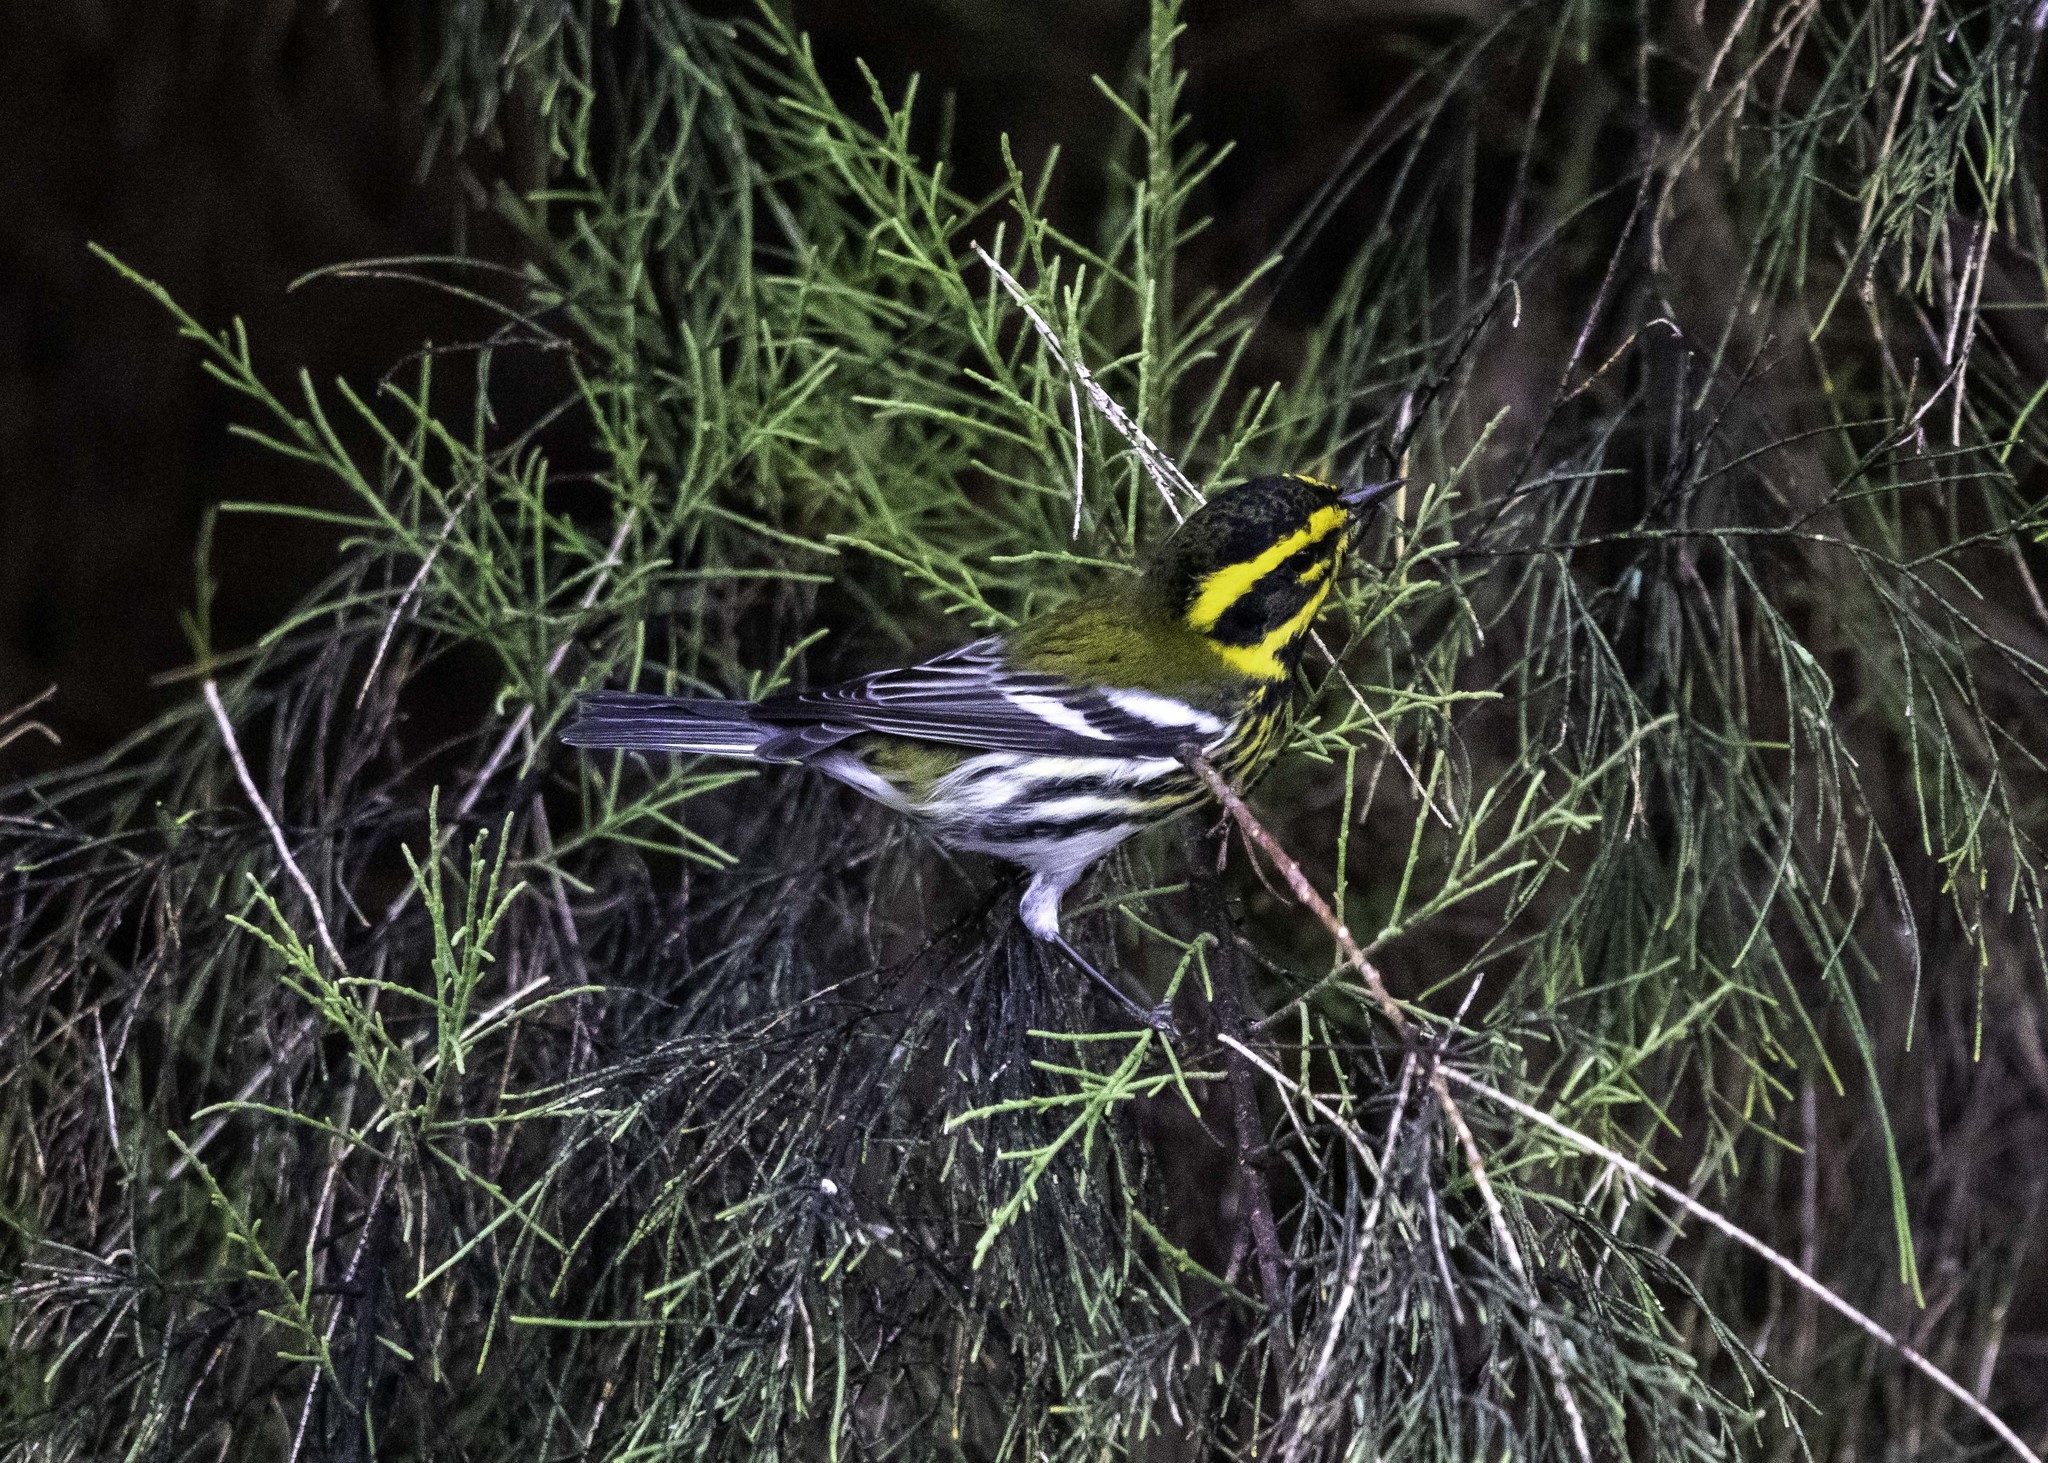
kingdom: Animalia
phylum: Chordata
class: Aves
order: Passeriformes
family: Parulidae
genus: Setophaga
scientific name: Setophaga townsendi
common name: Townsend's warbler
